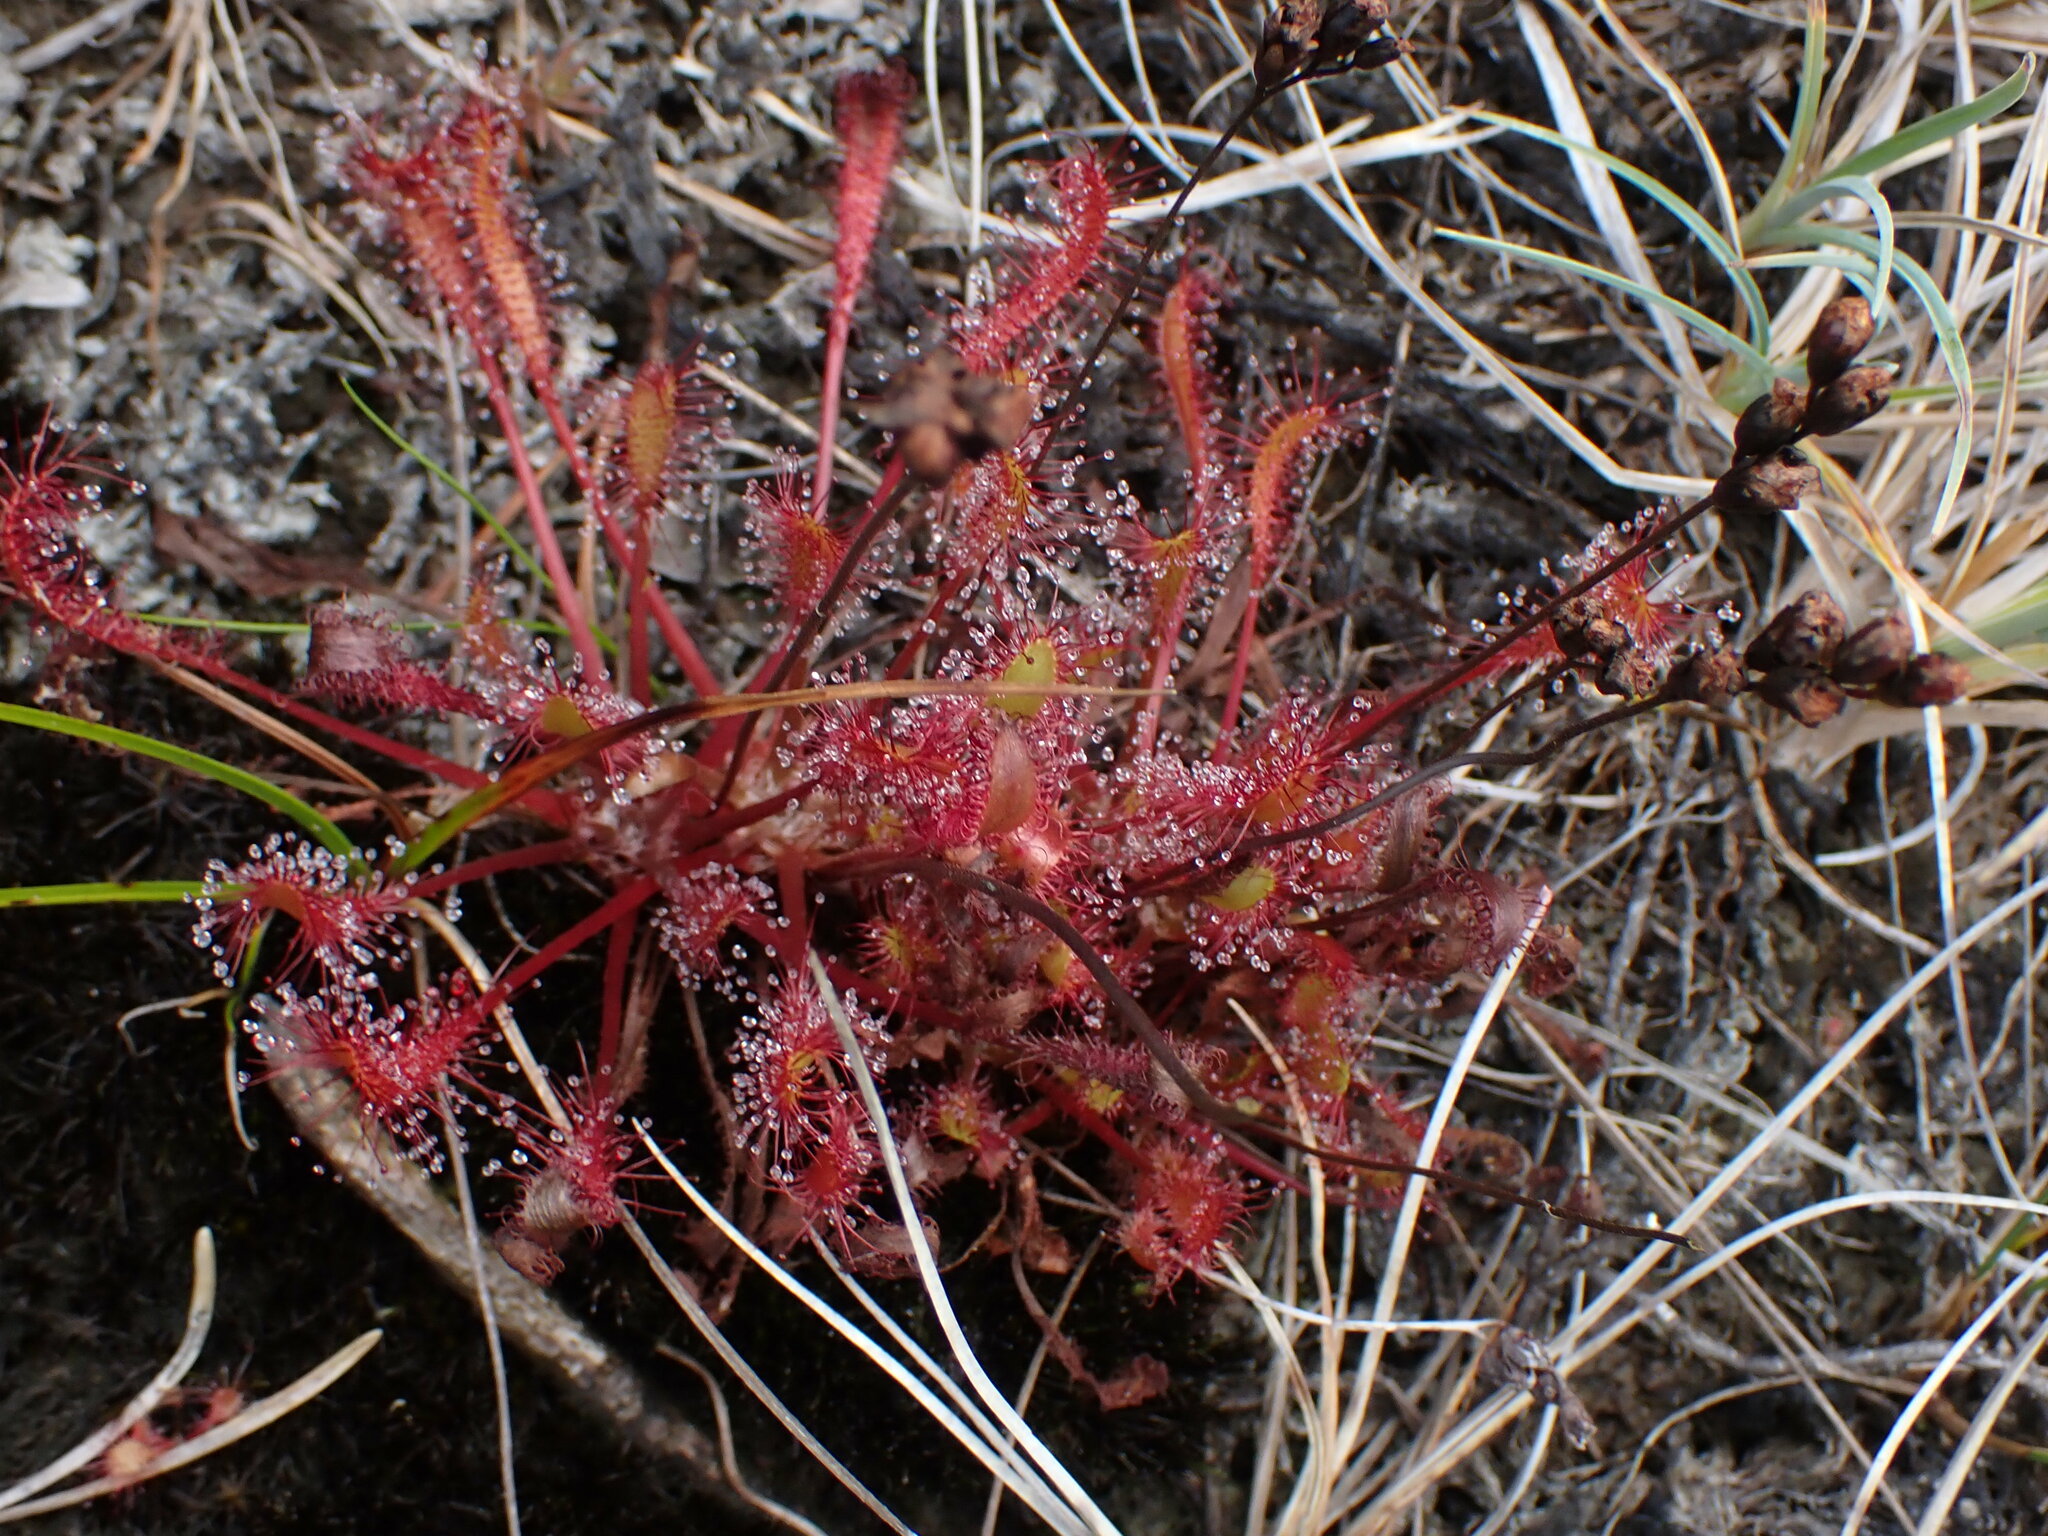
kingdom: Plantae
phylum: Tracheophyta
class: Magnoliopsida
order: Caryophyllales
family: Droseraceae
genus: Drosera
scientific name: Drosera anglica
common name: Great sundew
